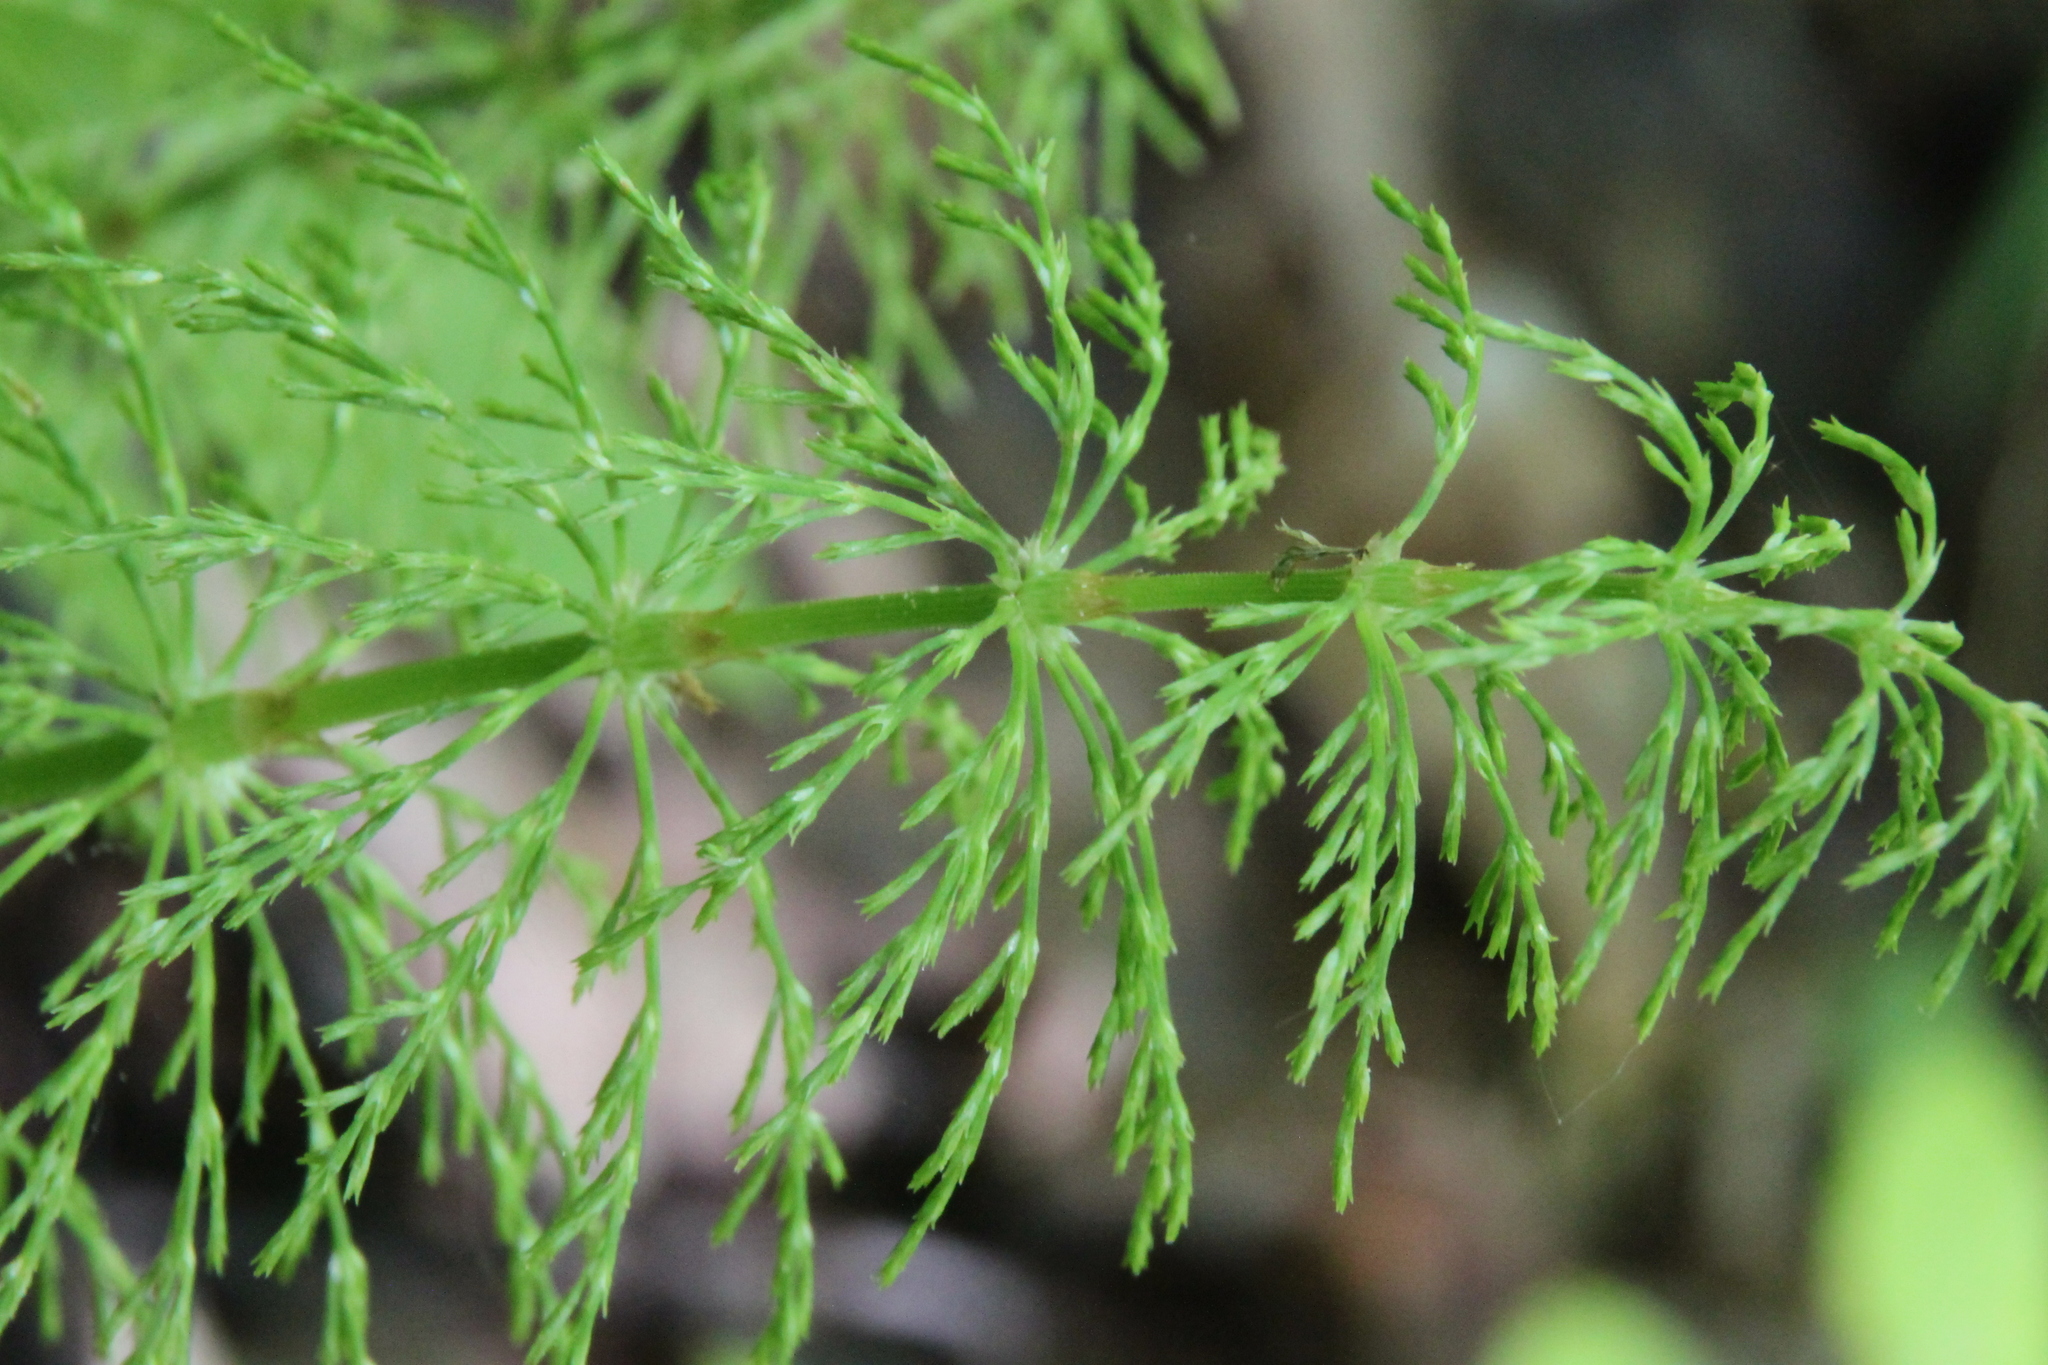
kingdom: Plantae
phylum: Tracheophyta
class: Polypodiopsida
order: Equisetales
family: Equisetaceae
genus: Equisetum
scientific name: Equisetum sylvaticum
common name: Wood horsetail
